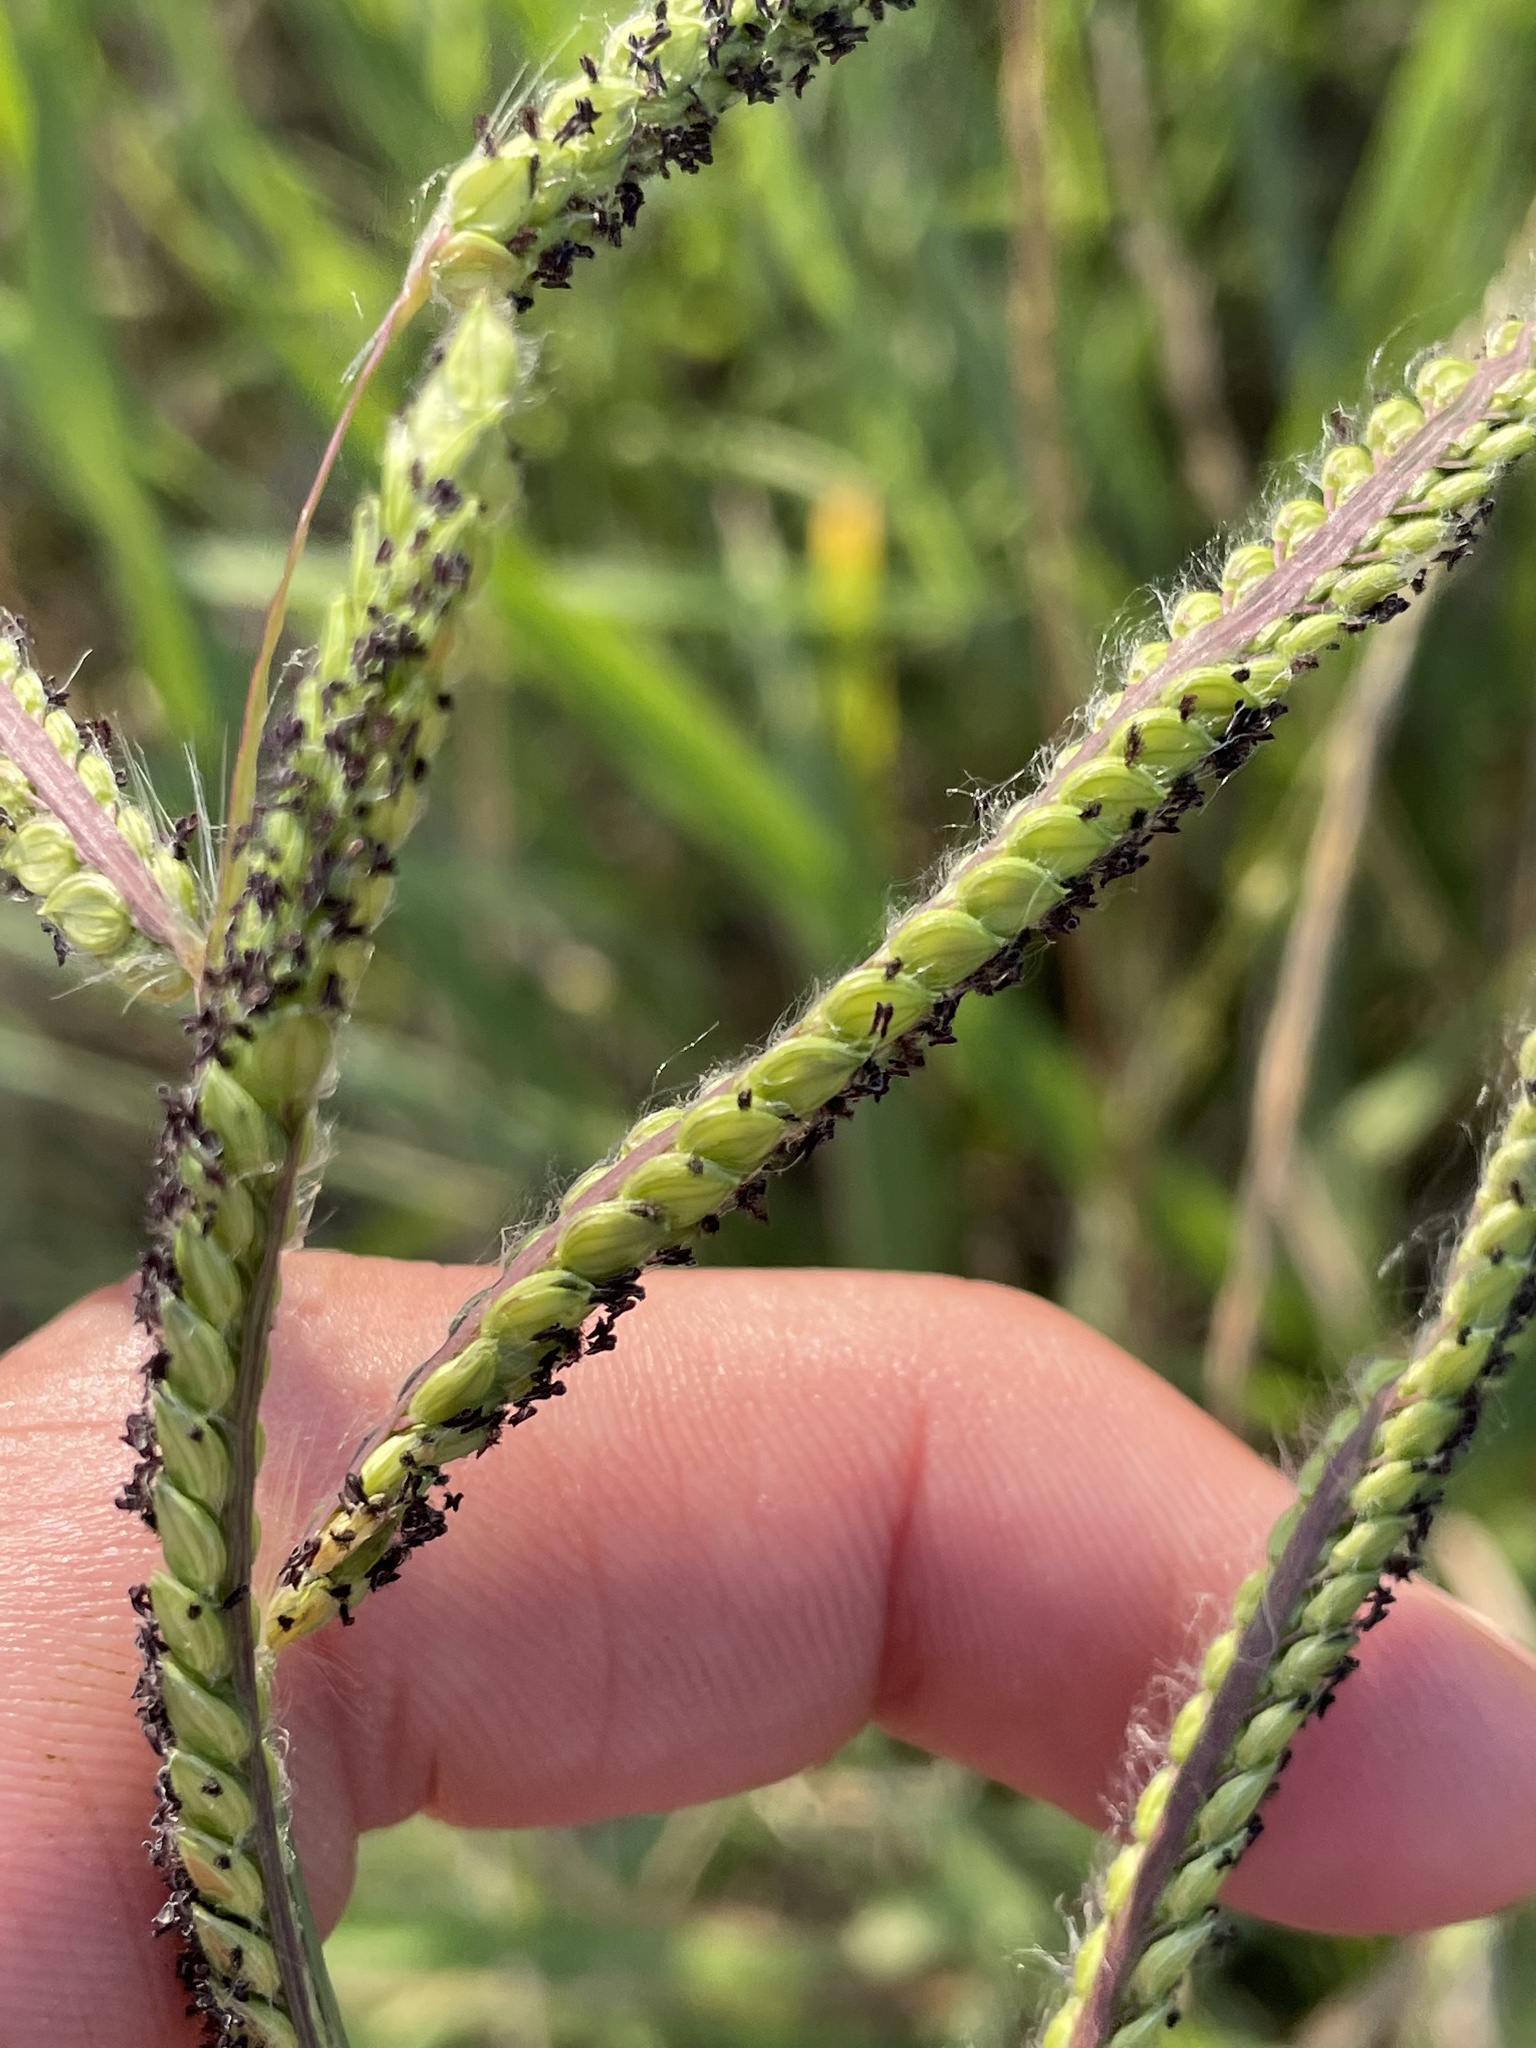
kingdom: Plantae
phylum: Tracheophyta
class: Liliopsida
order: Poales
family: Poaceae
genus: Paspalum
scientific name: Paspalum dilatatum
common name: Dallisgrass
